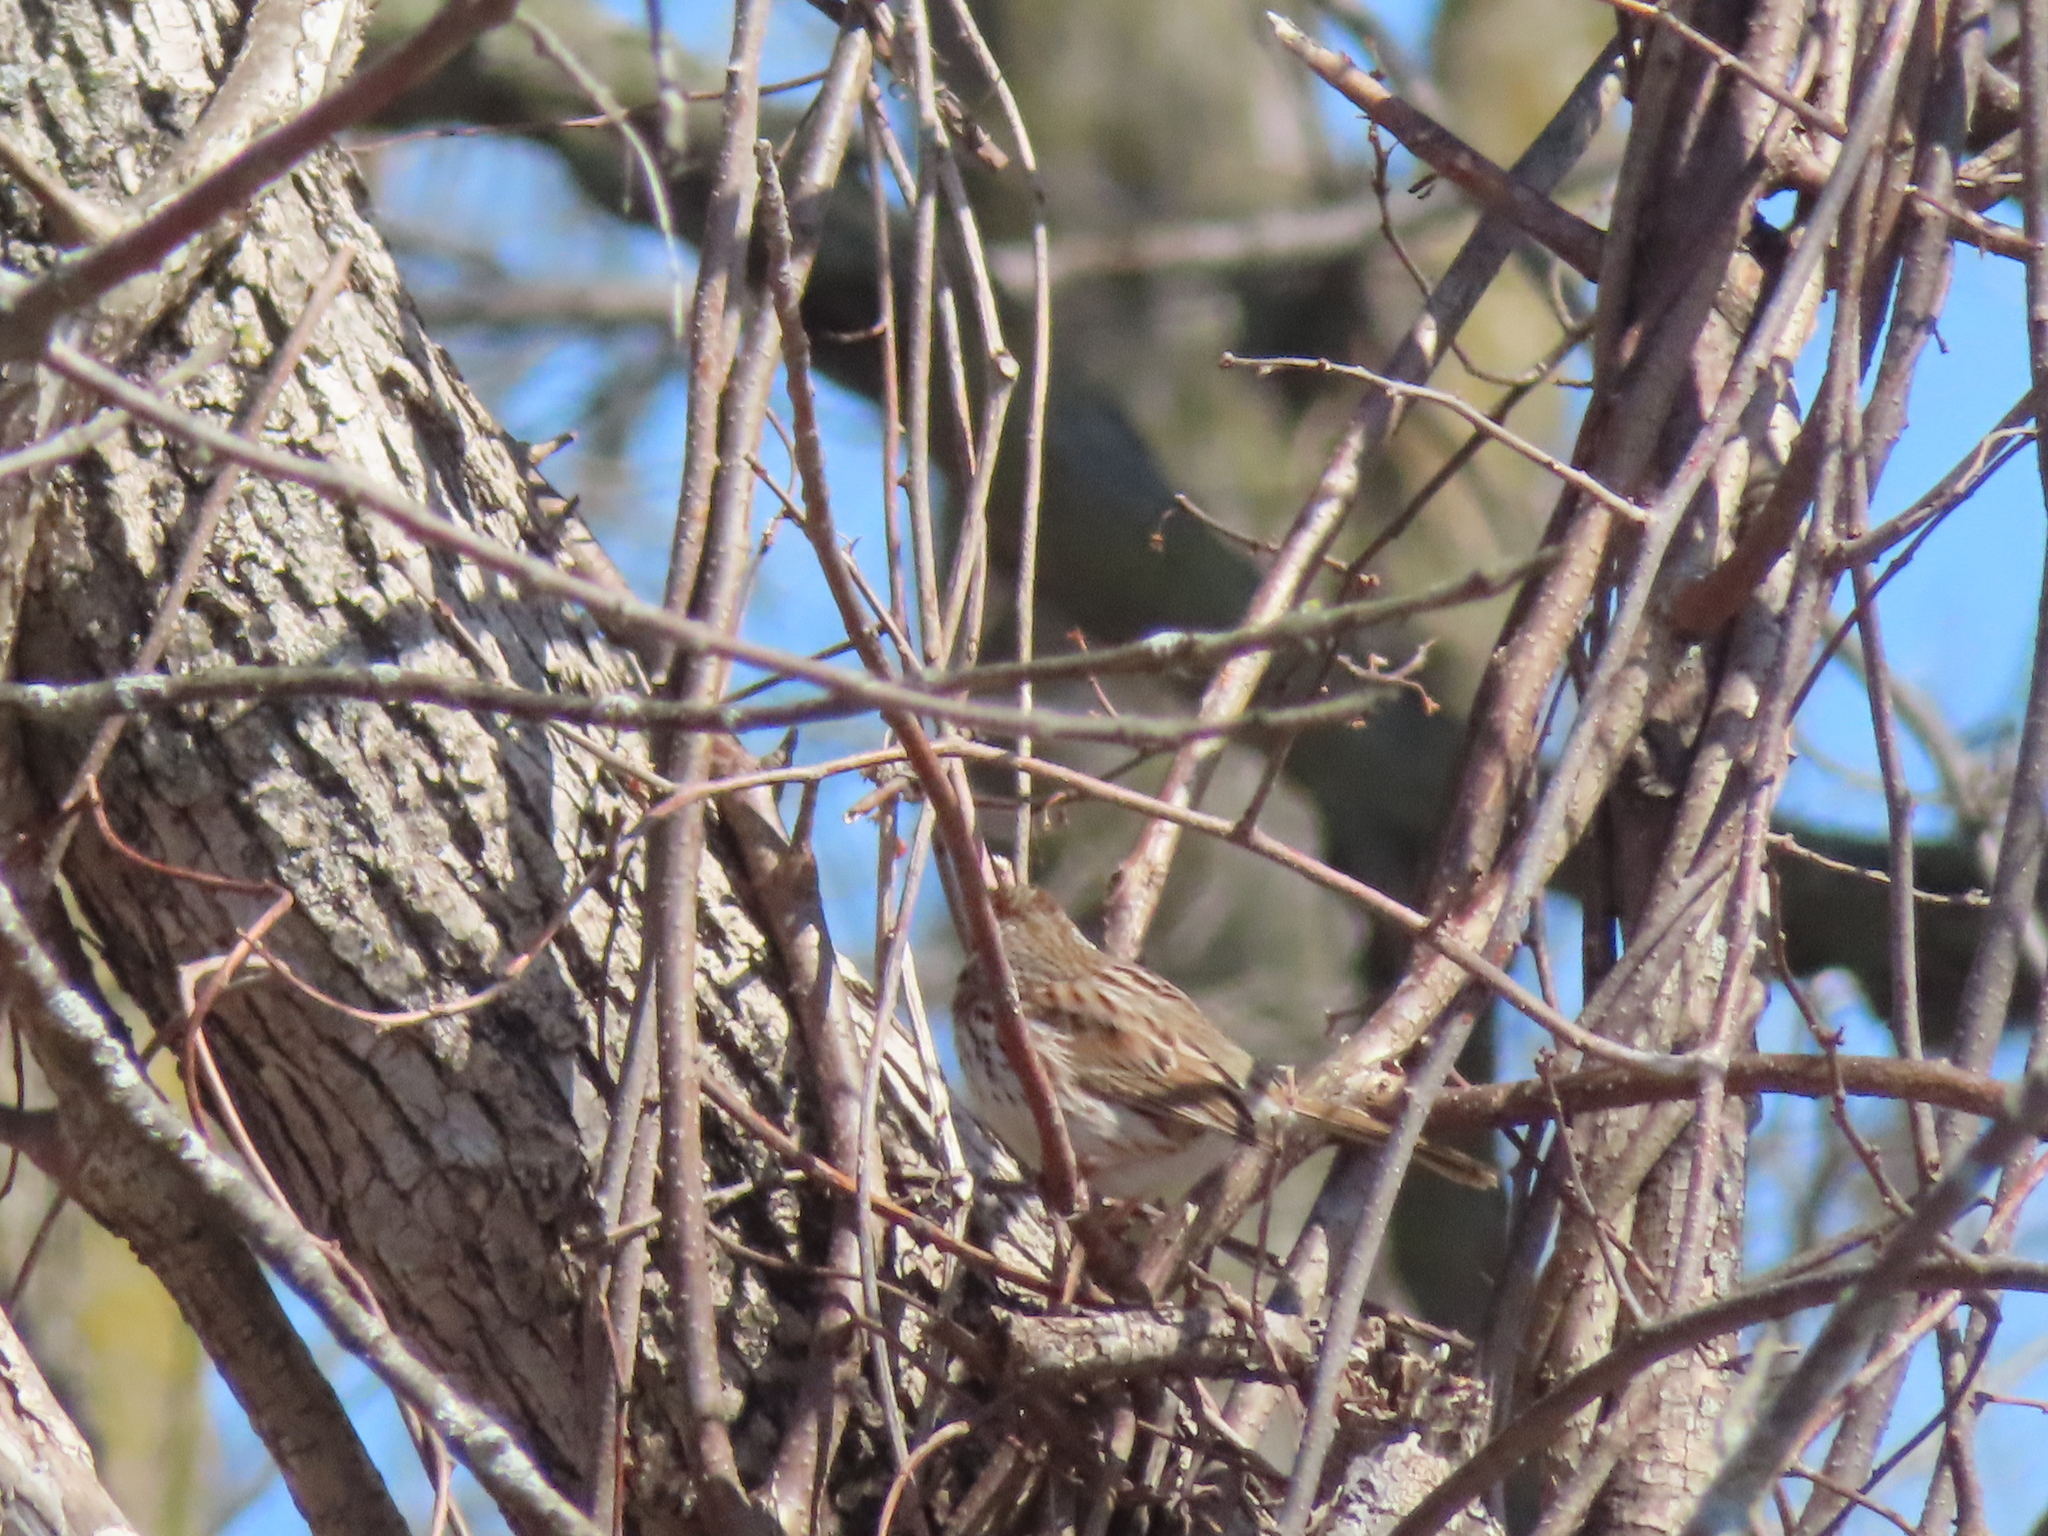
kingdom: Animalia
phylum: Chordata
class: Aves
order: Passeriformes
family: Passerellidae
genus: Melospiza
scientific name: Melospiza melodia
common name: Song sparrow
